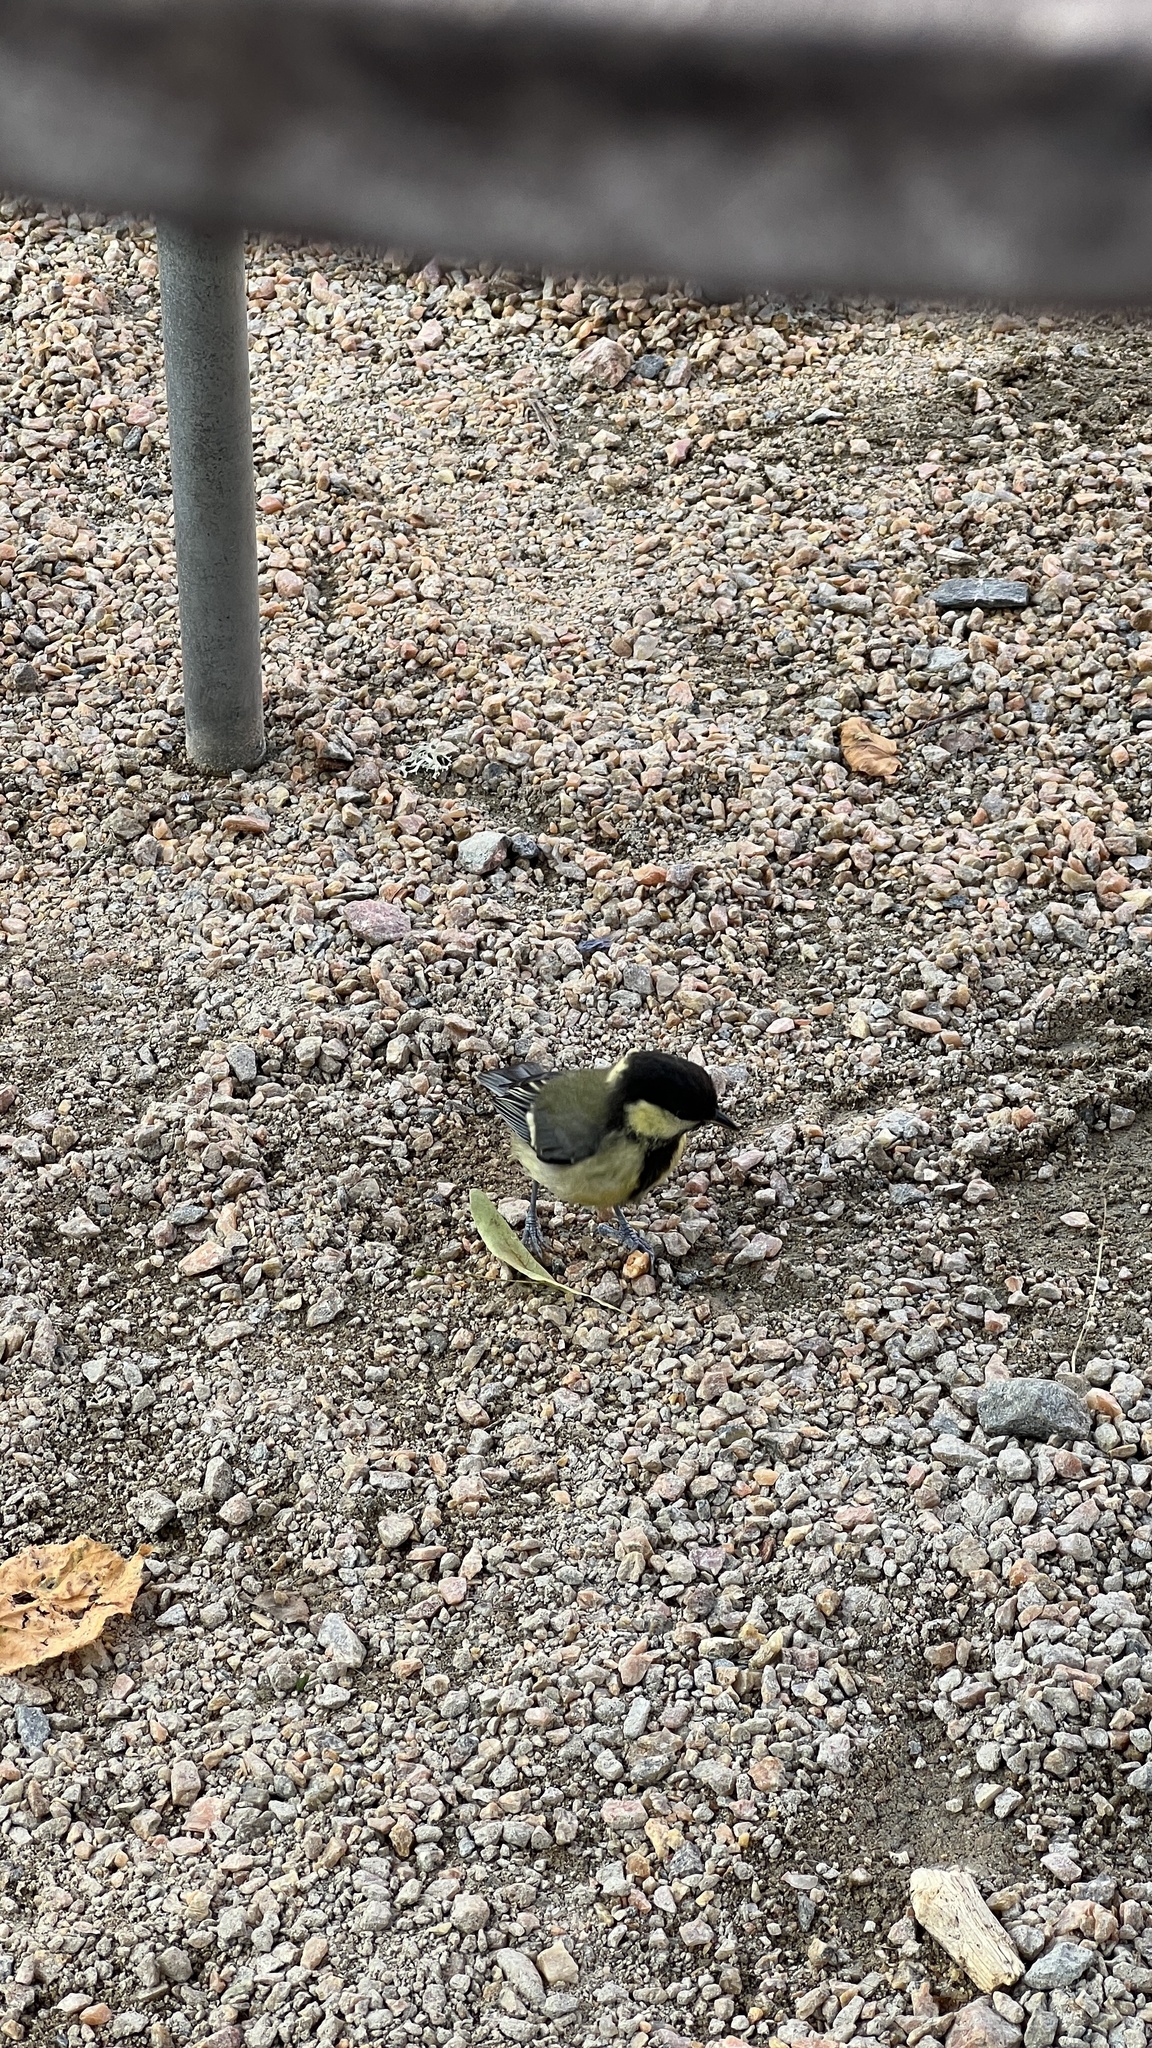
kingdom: Animalia
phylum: Chordata
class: Aves
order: Passeriformes
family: Paridae
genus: Parus
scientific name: Parus major
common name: Great tit
